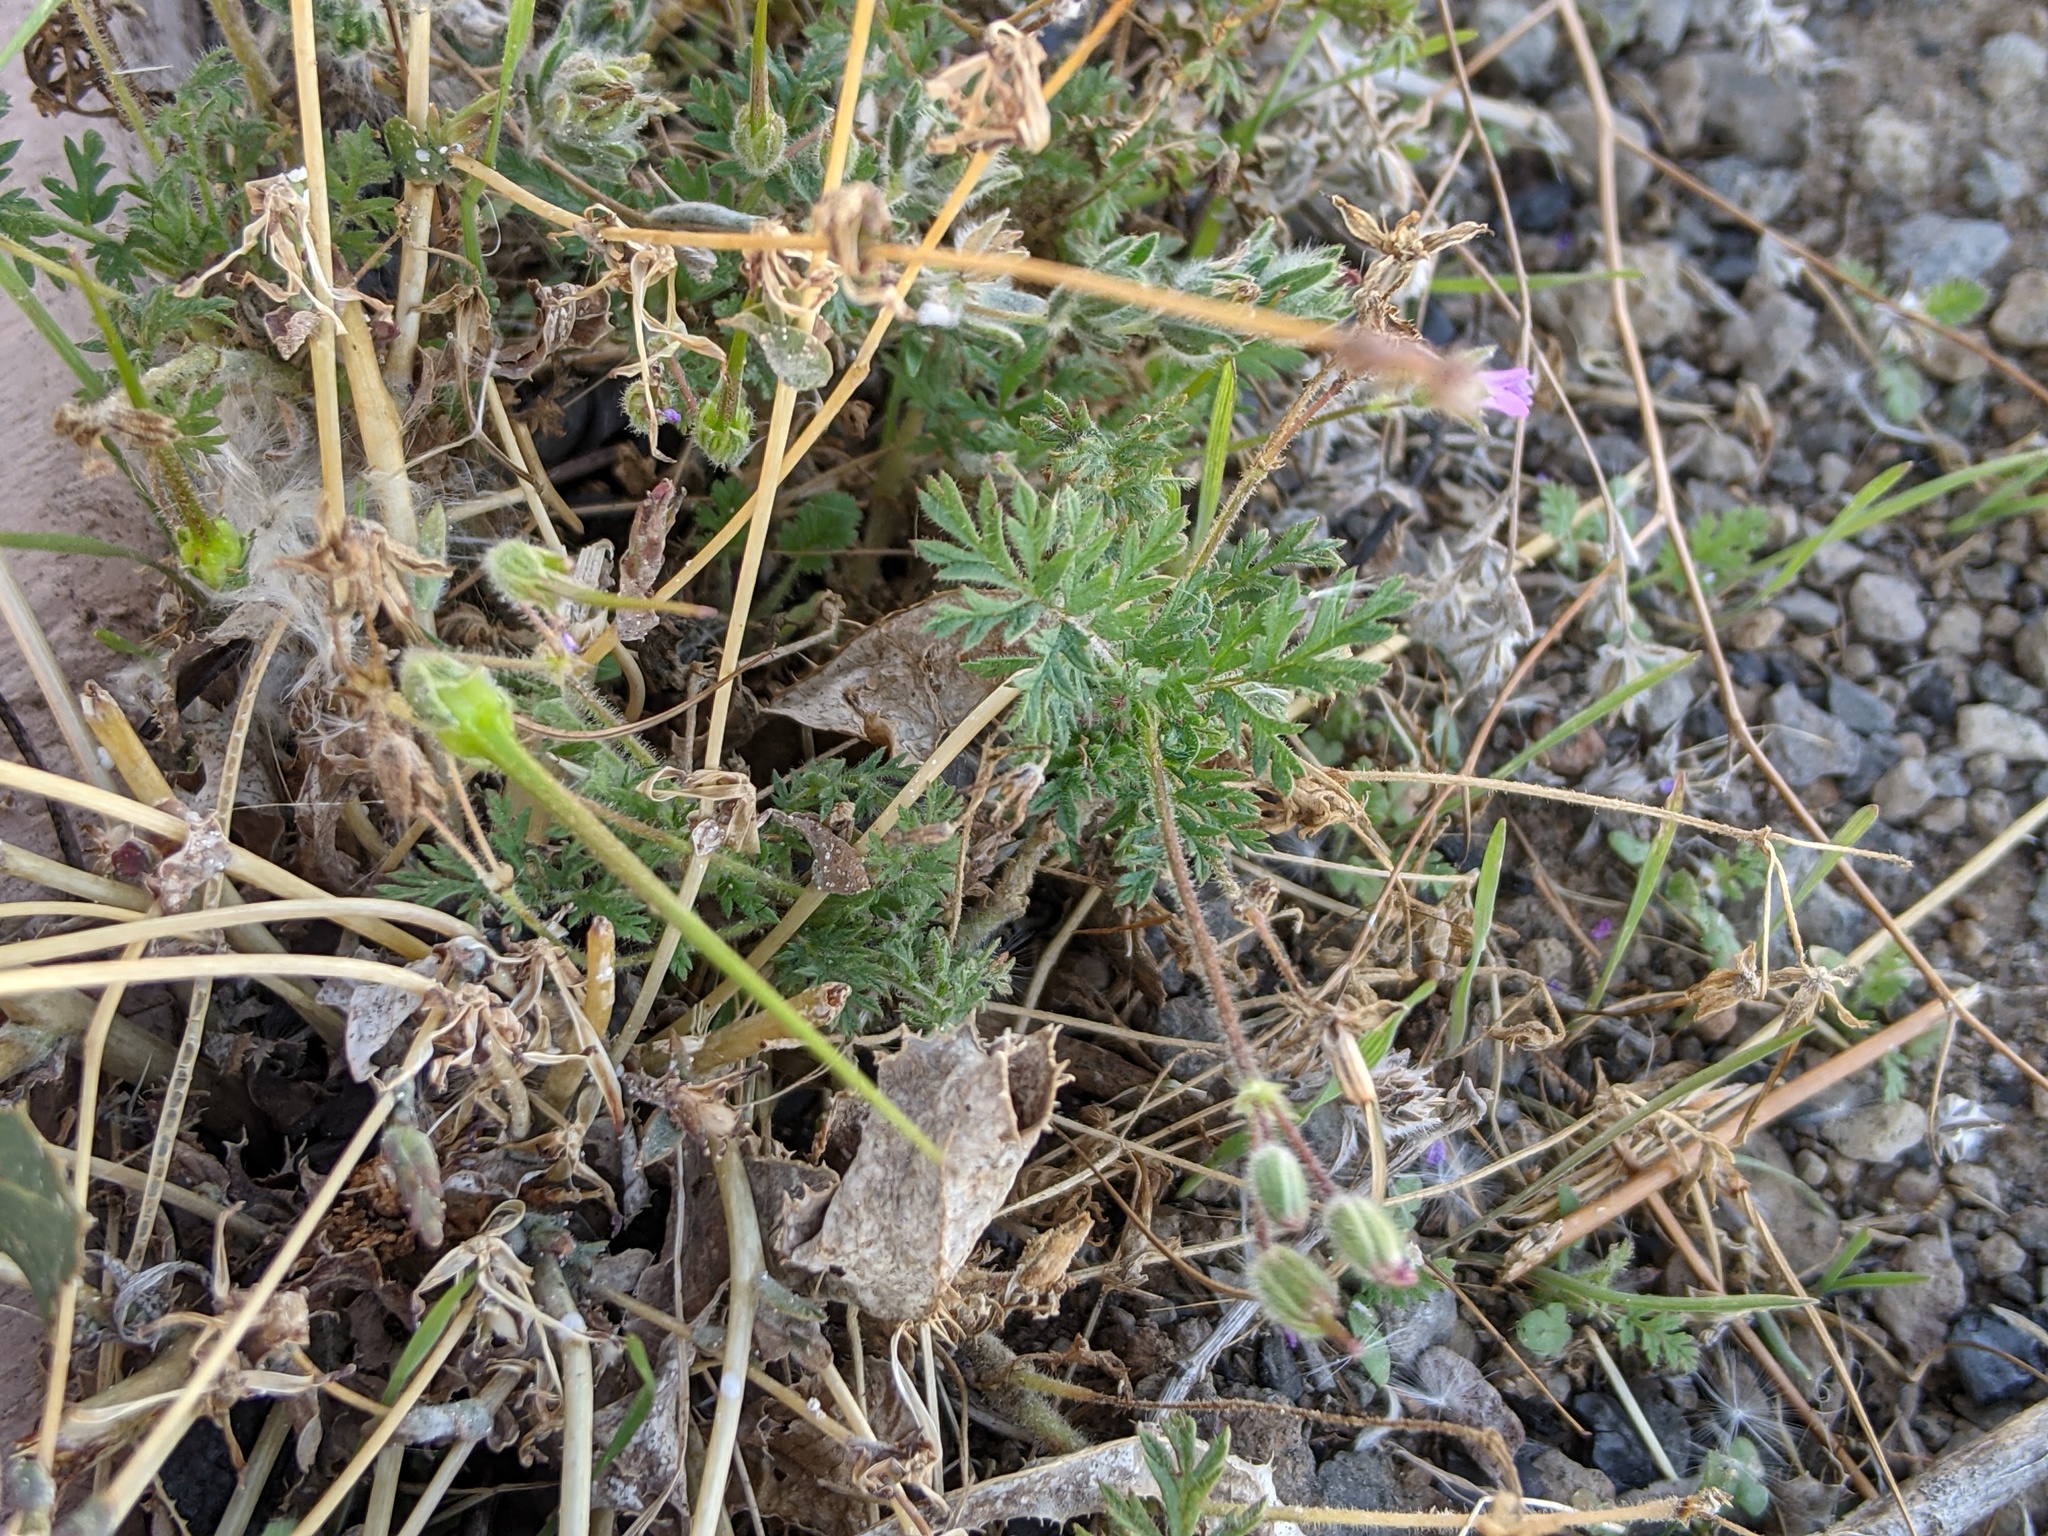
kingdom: Plantae
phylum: Tracheophyta
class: Magnoliopsida
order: Geraniales
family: Geraniaceae
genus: Erodium
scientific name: Erodium cicutarium
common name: Common stork's-bill
